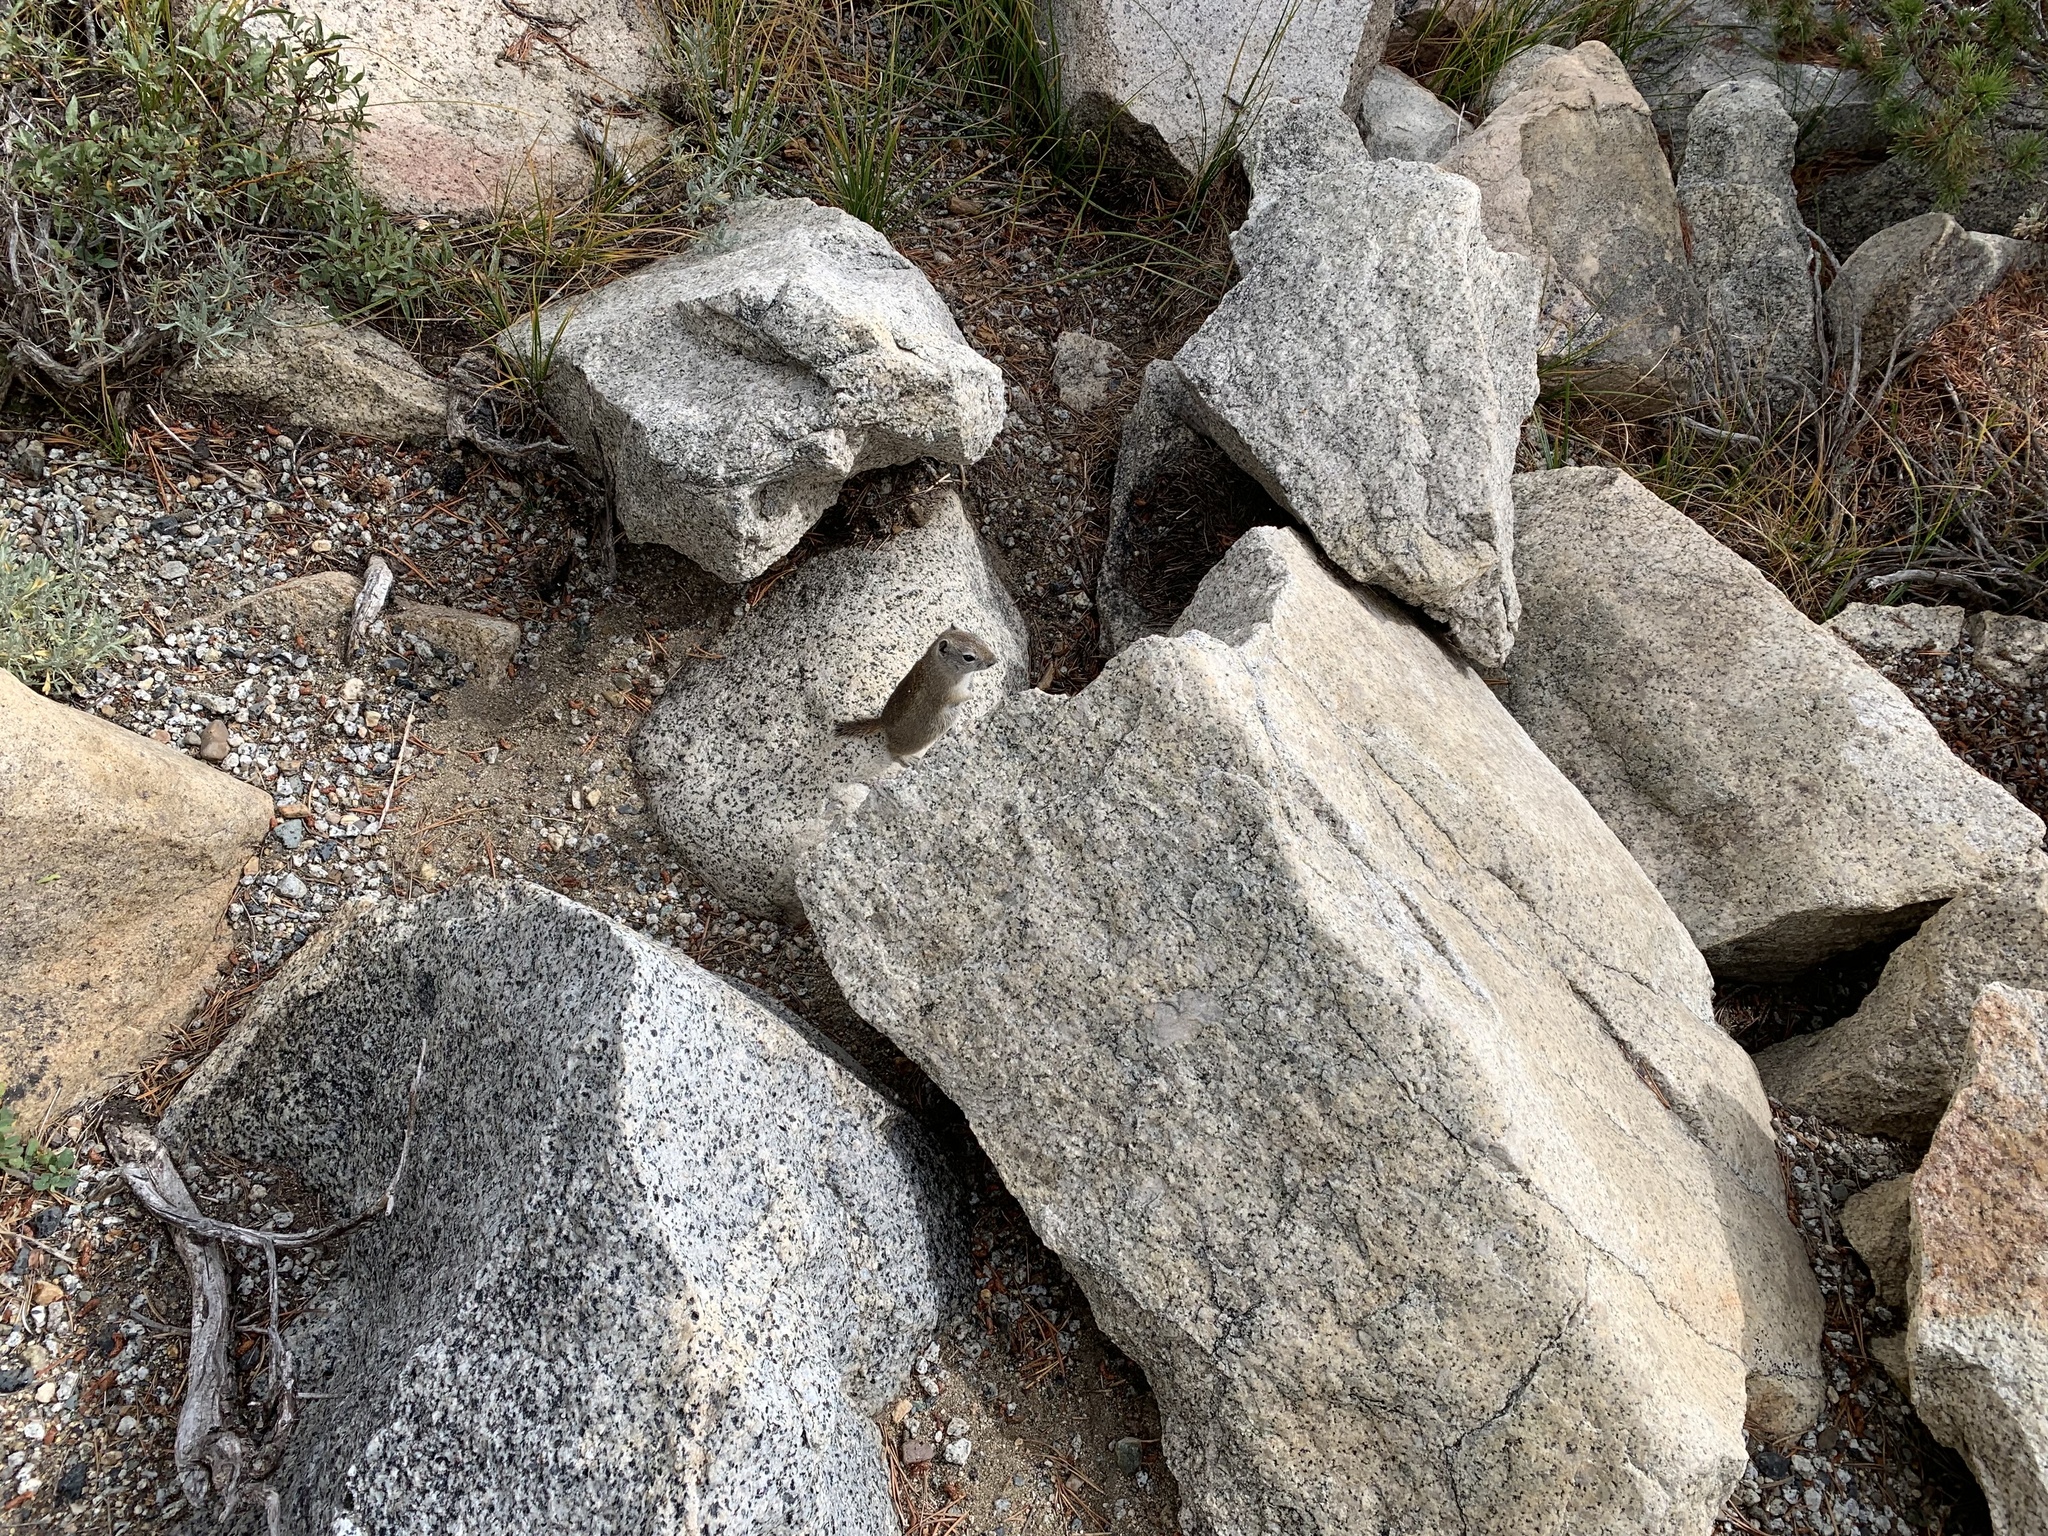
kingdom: Animalia
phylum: Chordata
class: Mammalia
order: Rodentia
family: Sciuridae
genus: Urocitellus
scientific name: Urocitellus beldingi
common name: Belding's ground squirrel
